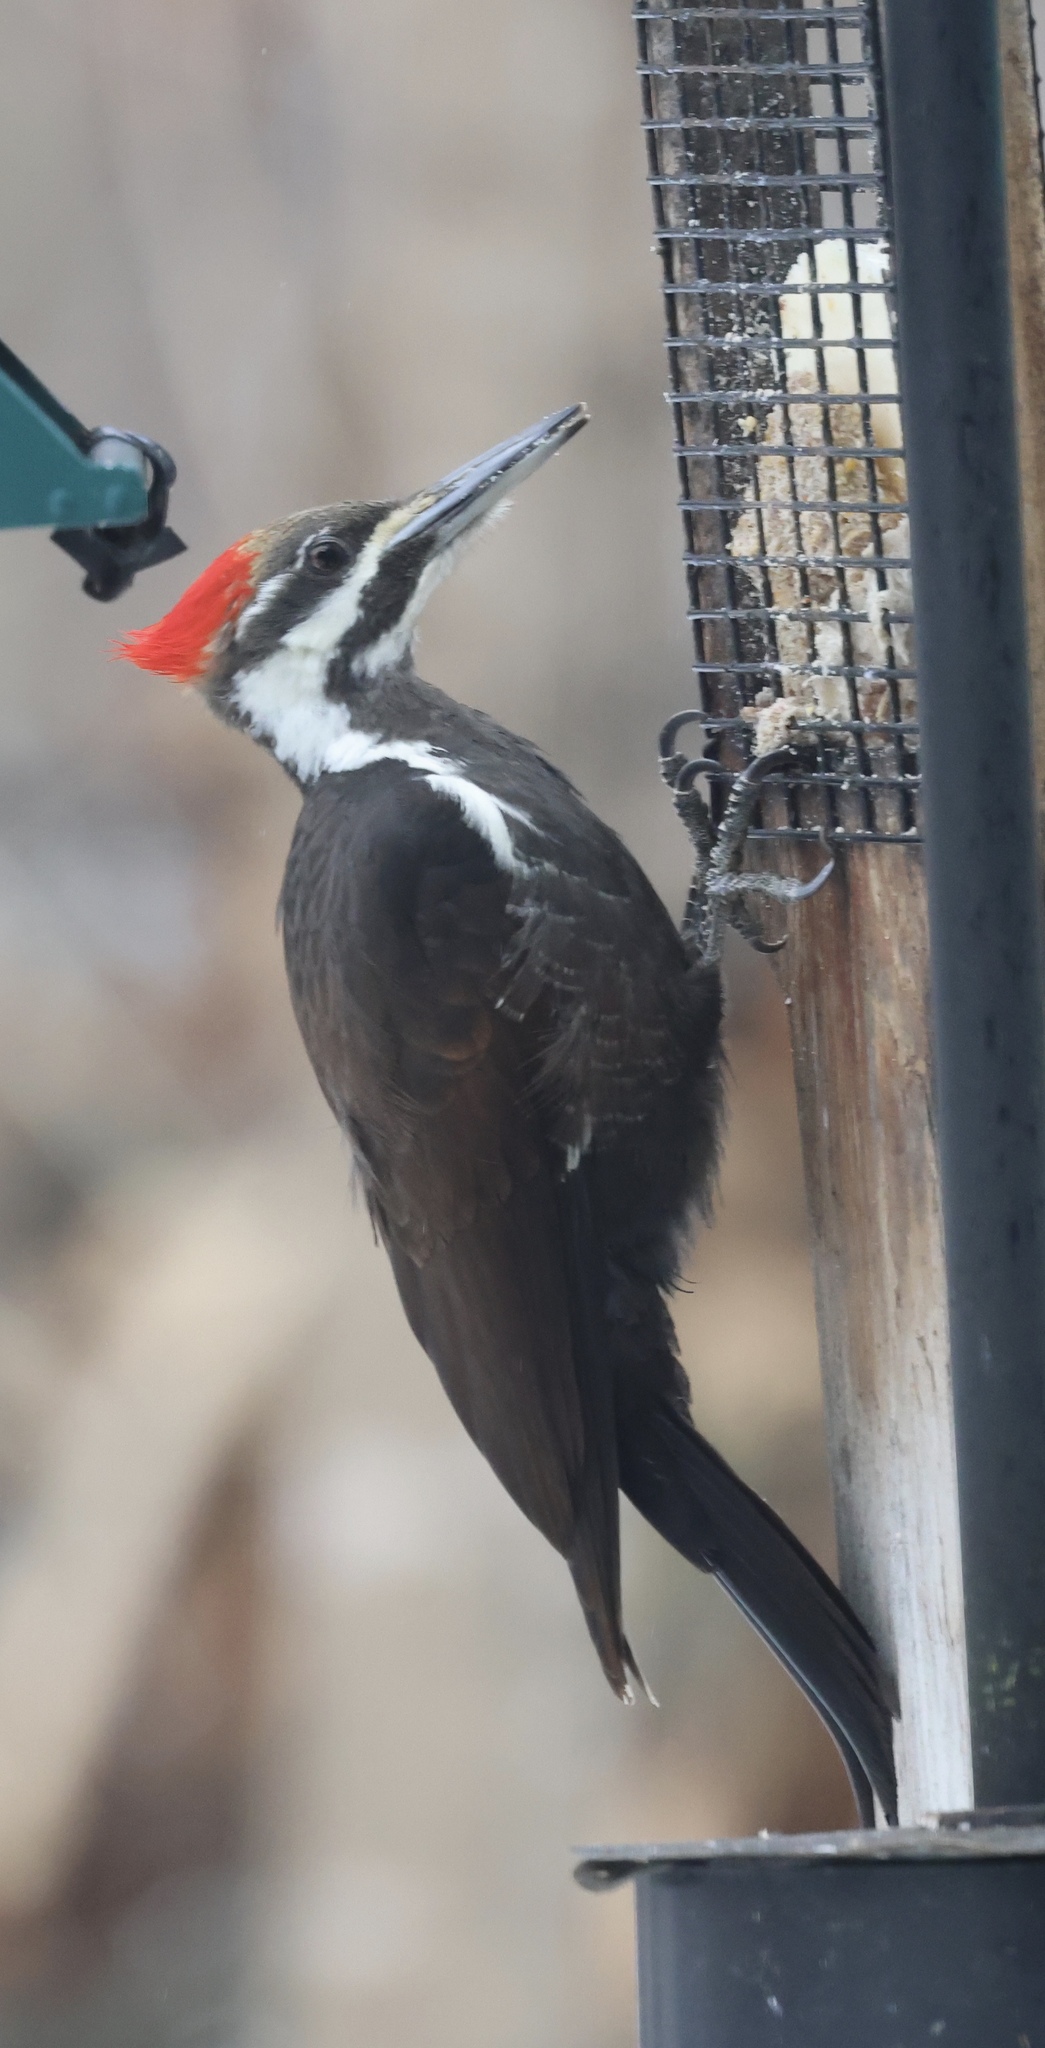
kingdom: Animalia
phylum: Chordata
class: Aves
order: Piciformes
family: Picidae
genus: Dryocopus
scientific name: Dryocopus pileatus
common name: Pileated woodpecker
